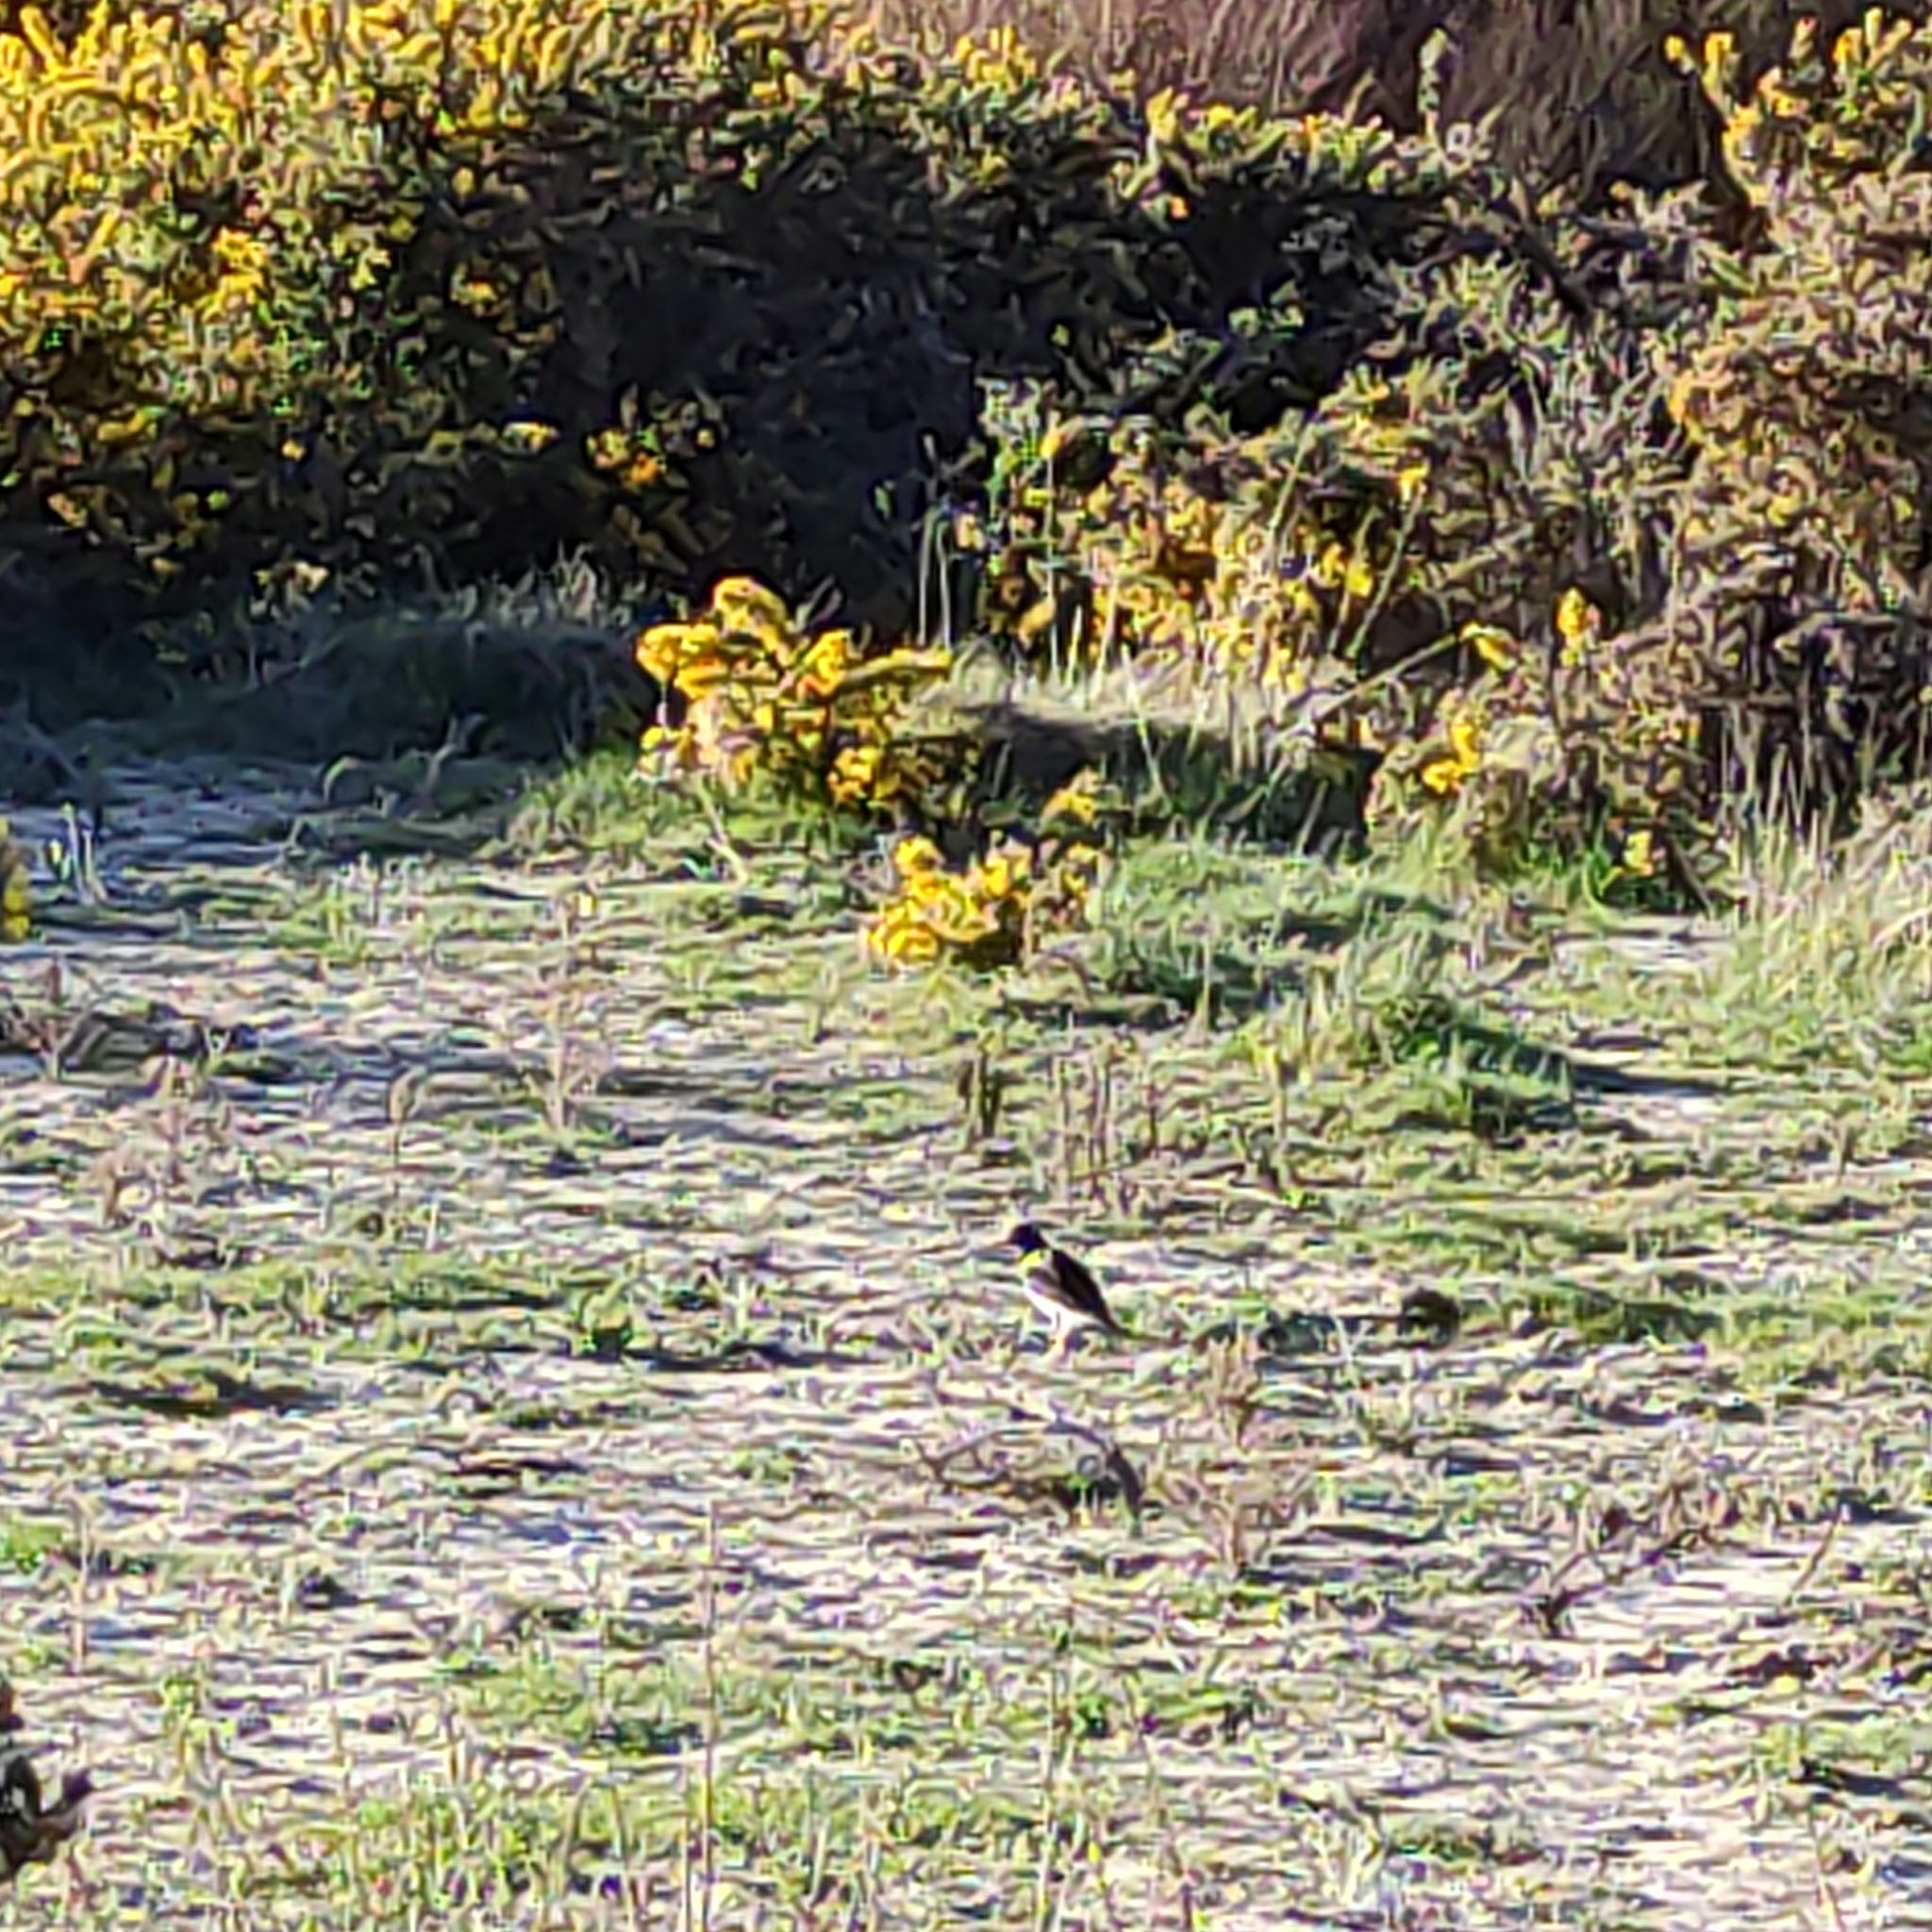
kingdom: Animalia
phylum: Chordata
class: Aves
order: Charadriiformes
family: Haematopodidae
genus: Haematopus
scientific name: Haematopus finschi
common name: South island oystercatcher
